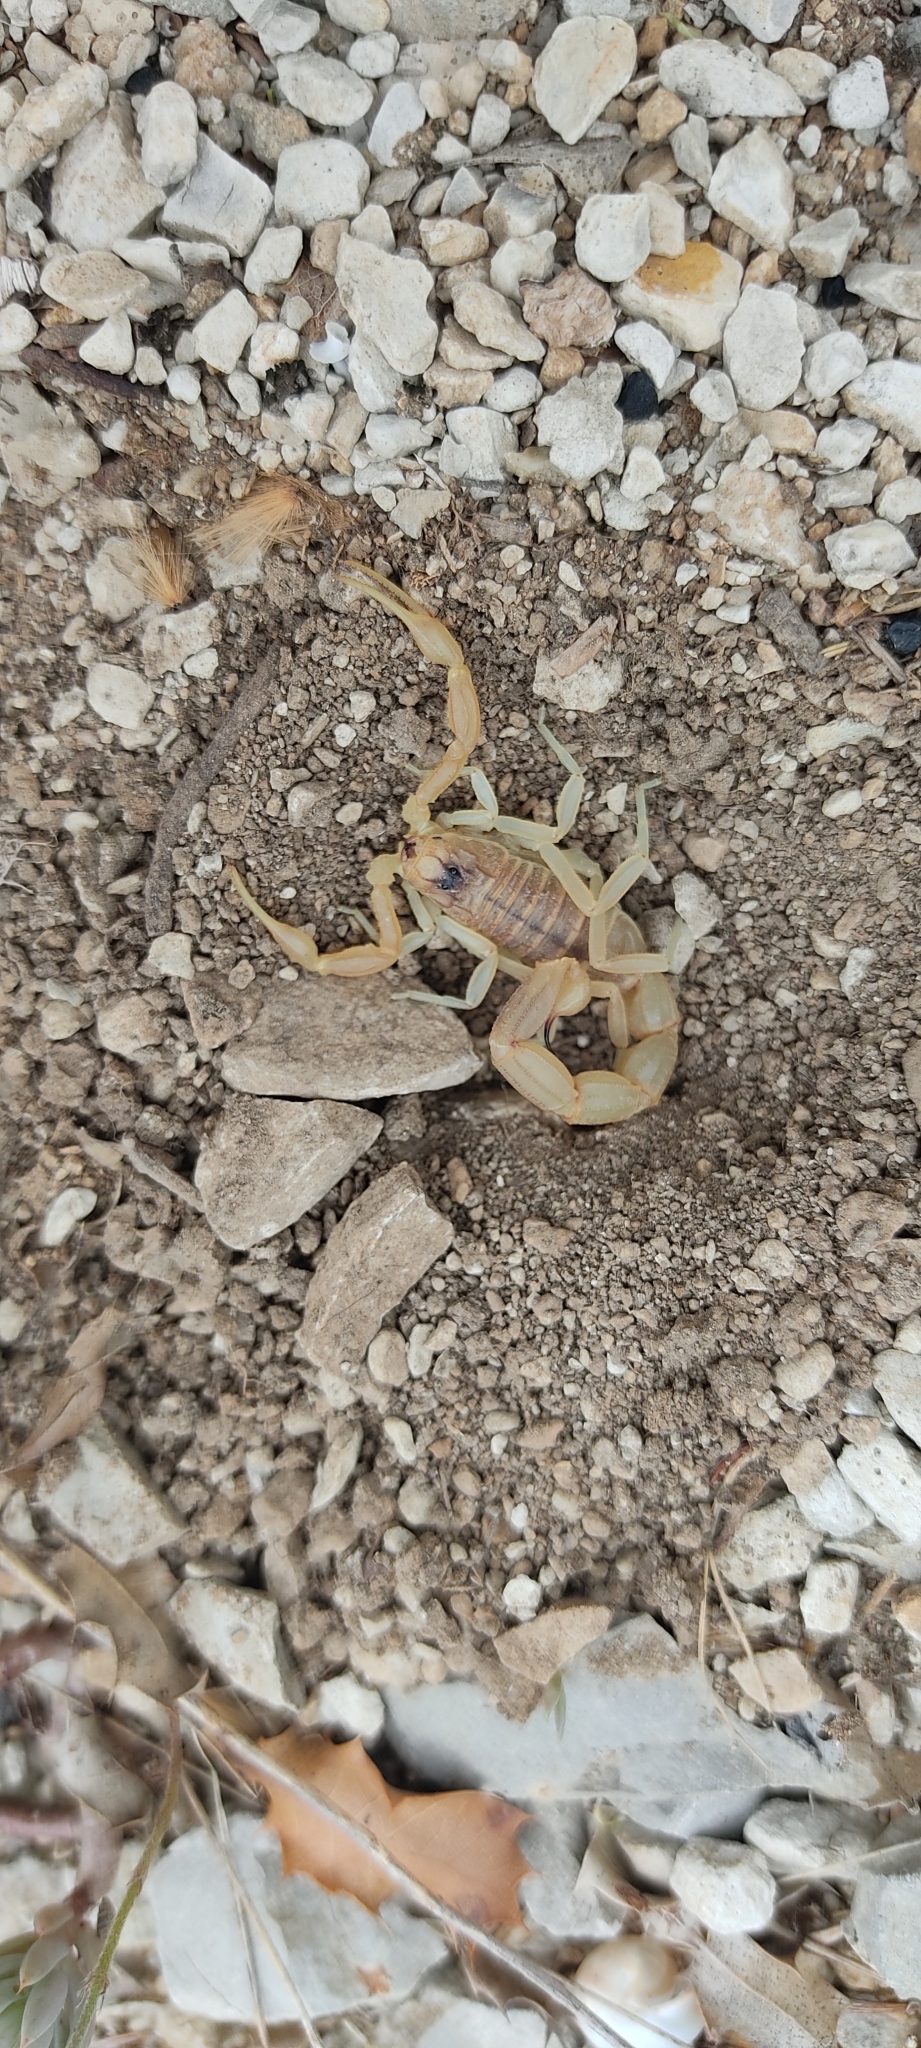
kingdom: Animalia
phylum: Arthropoda
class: Arachnida
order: Scorpiones
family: Buthidae
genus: Buthus
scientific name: Buthus occitanus
